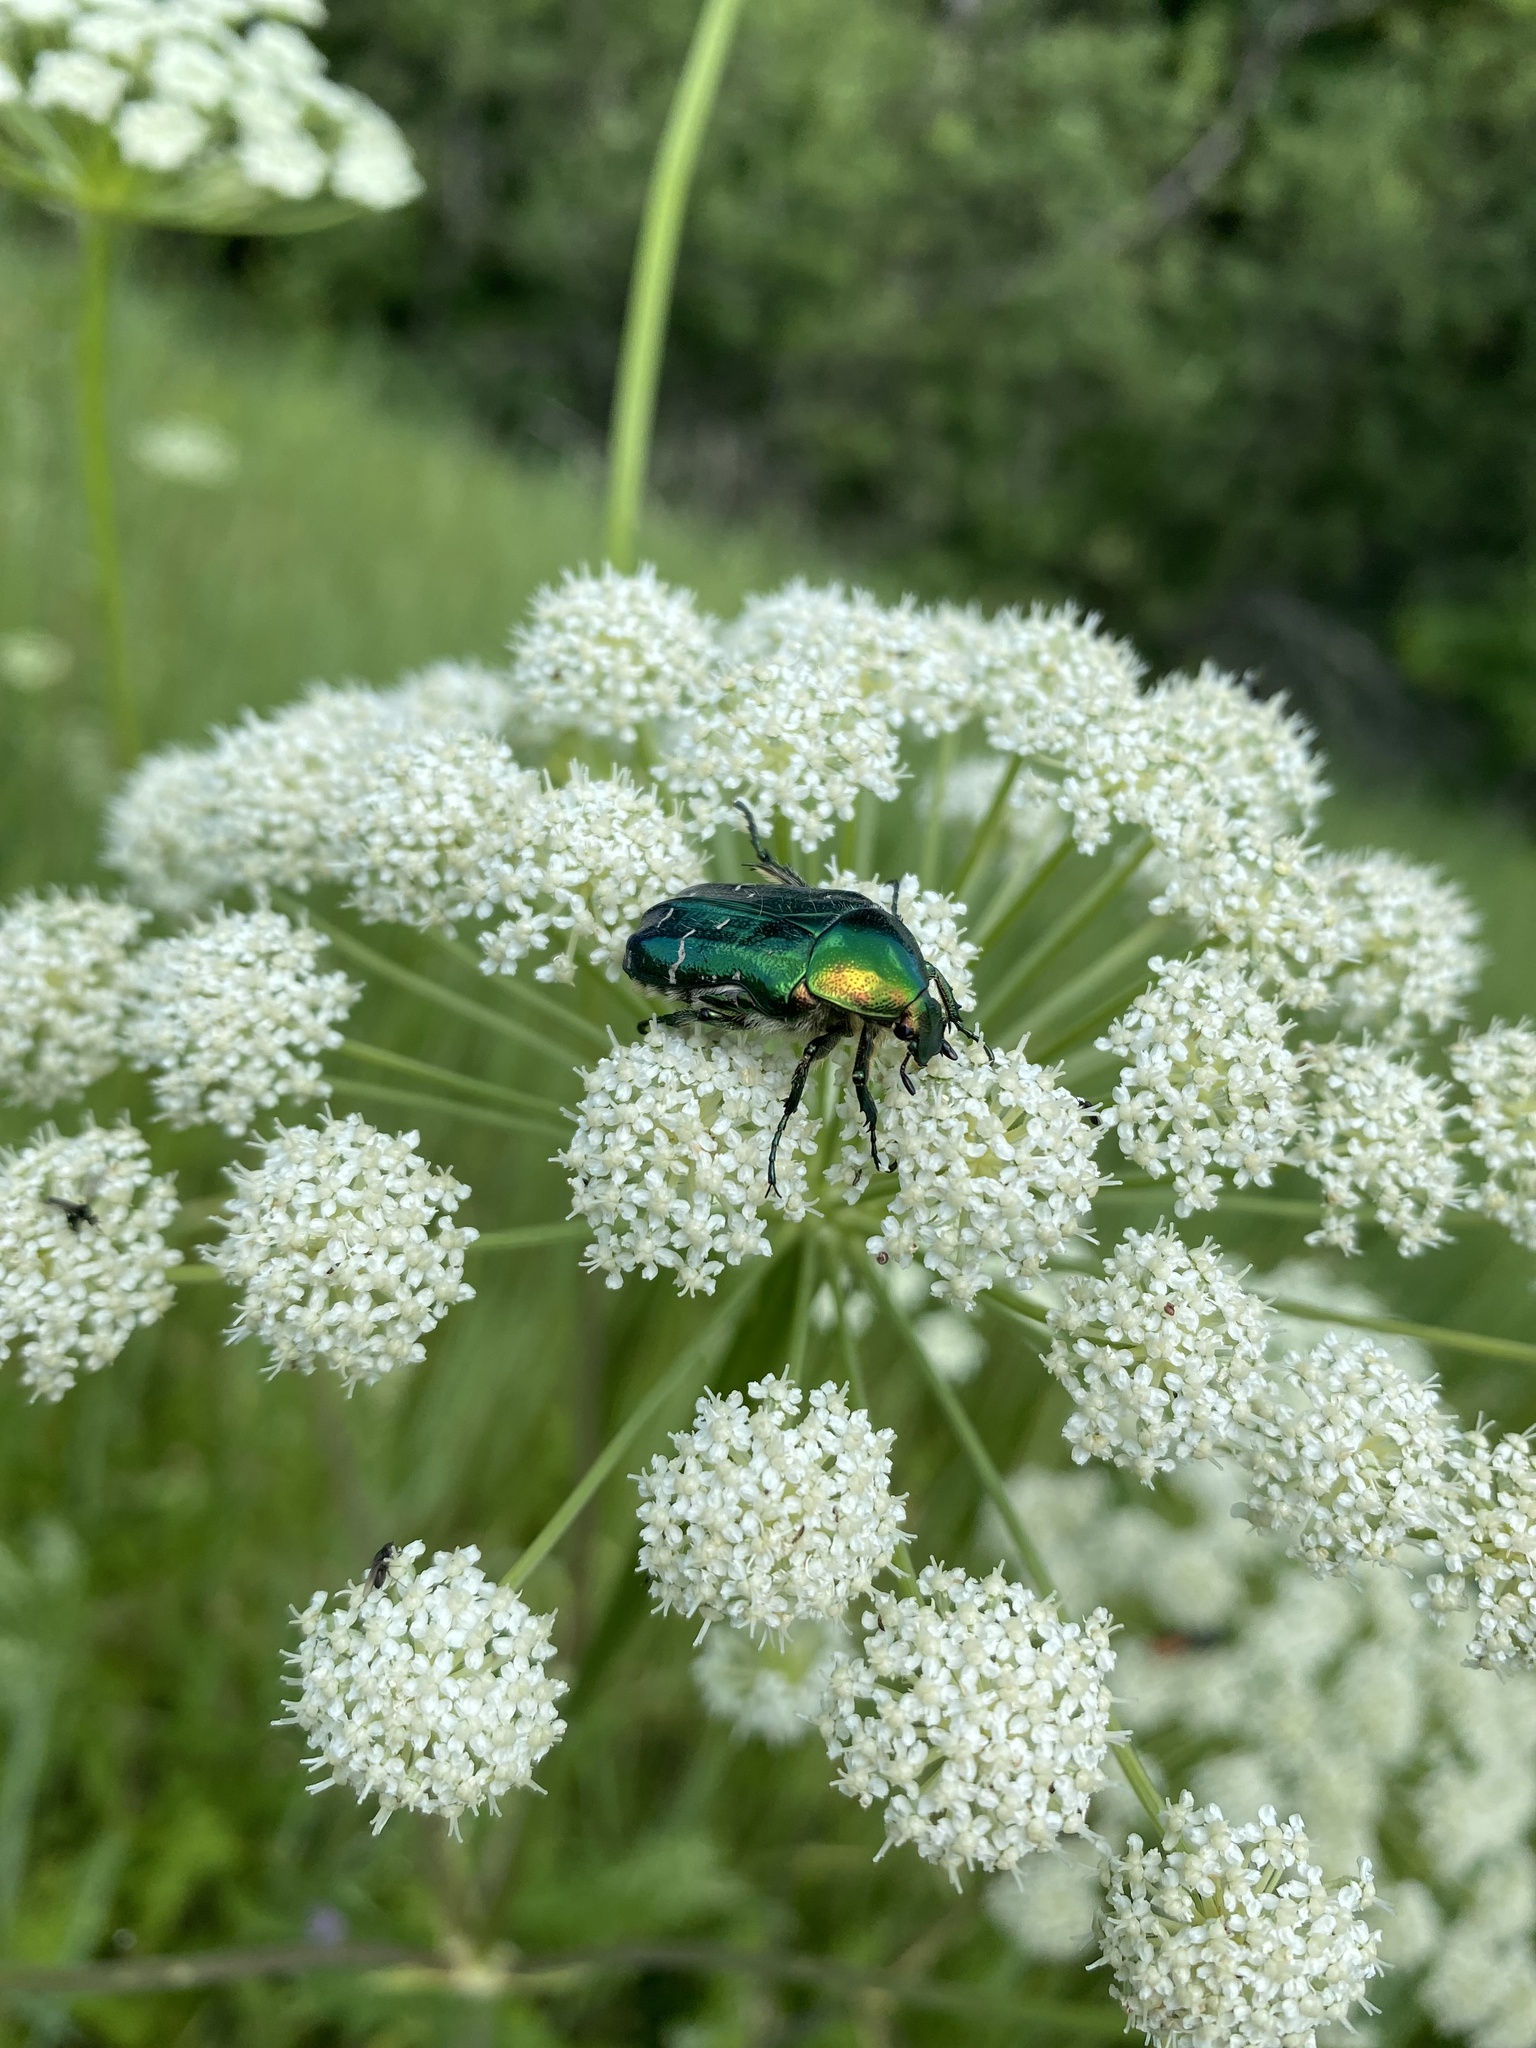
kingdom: Animalia
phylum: Arthropoda
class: Insecta
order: Coleoptera
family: Scarabaeidae
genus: Cetonia
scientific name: Cetonia aurata
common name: Rose chafer
